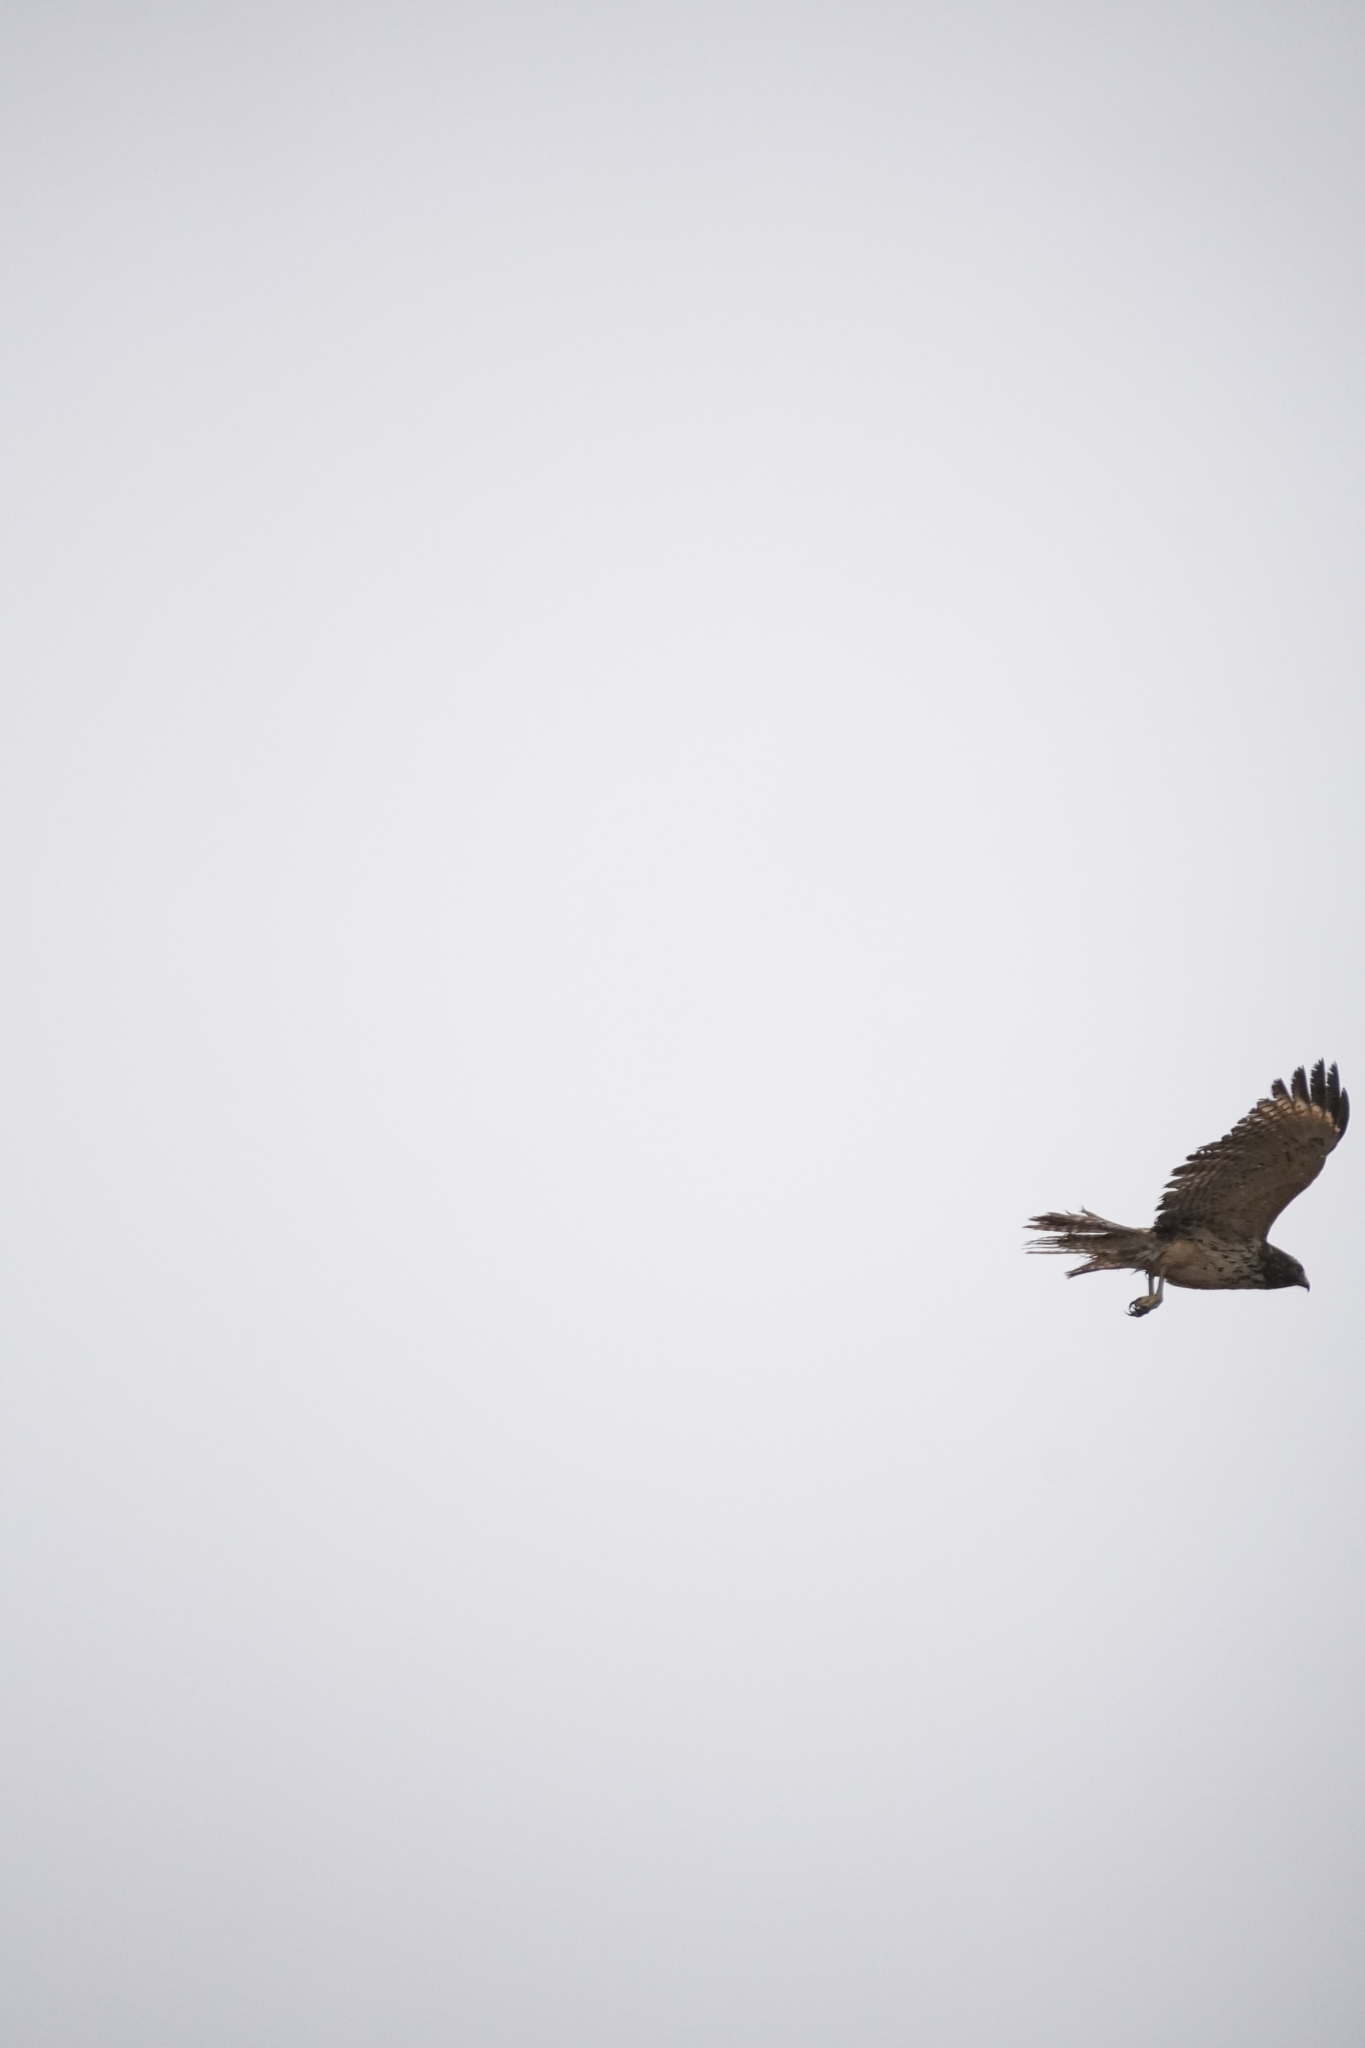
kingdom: Animalia
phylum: Chordata
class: Aves
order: Accipitriformes
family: Accipitridae
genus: Buteo
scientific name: Buteo lineatus
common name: Red-shouldered hawk
